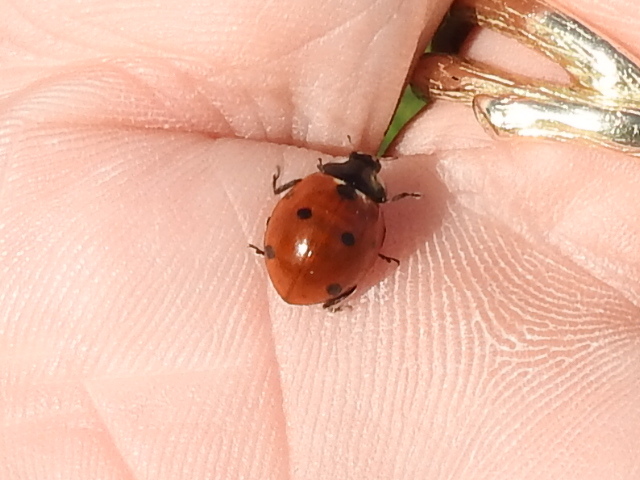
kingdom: Animalia
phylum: Arthropoda
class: Insecta
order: Coleoptera
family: Coccinellidae
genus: Coccinella
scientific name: Coccinella septempunctata
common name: Sevenspotted lady beetle
